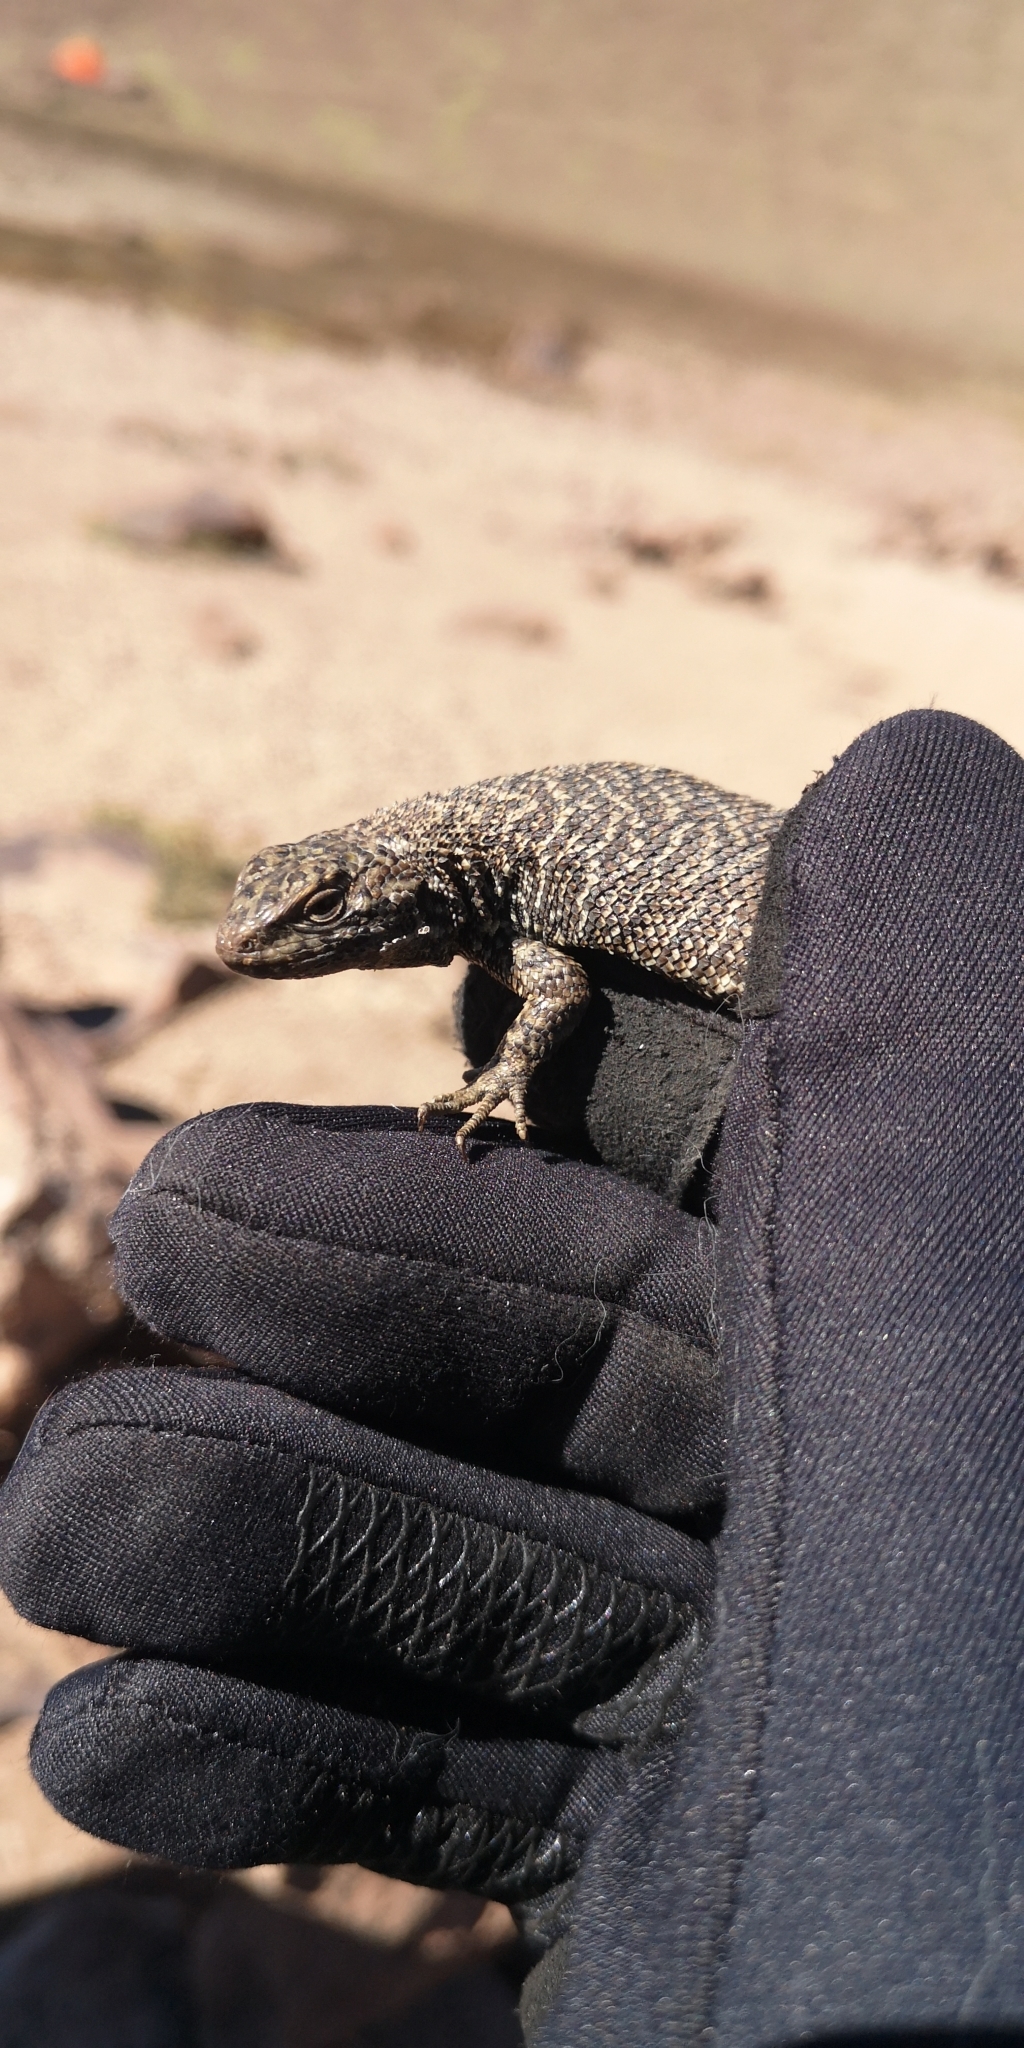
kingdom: Animalia
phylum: Chordata
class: Squamata
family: Liolaemidae
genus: Liolaemus
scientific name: Liolaemus bellii
